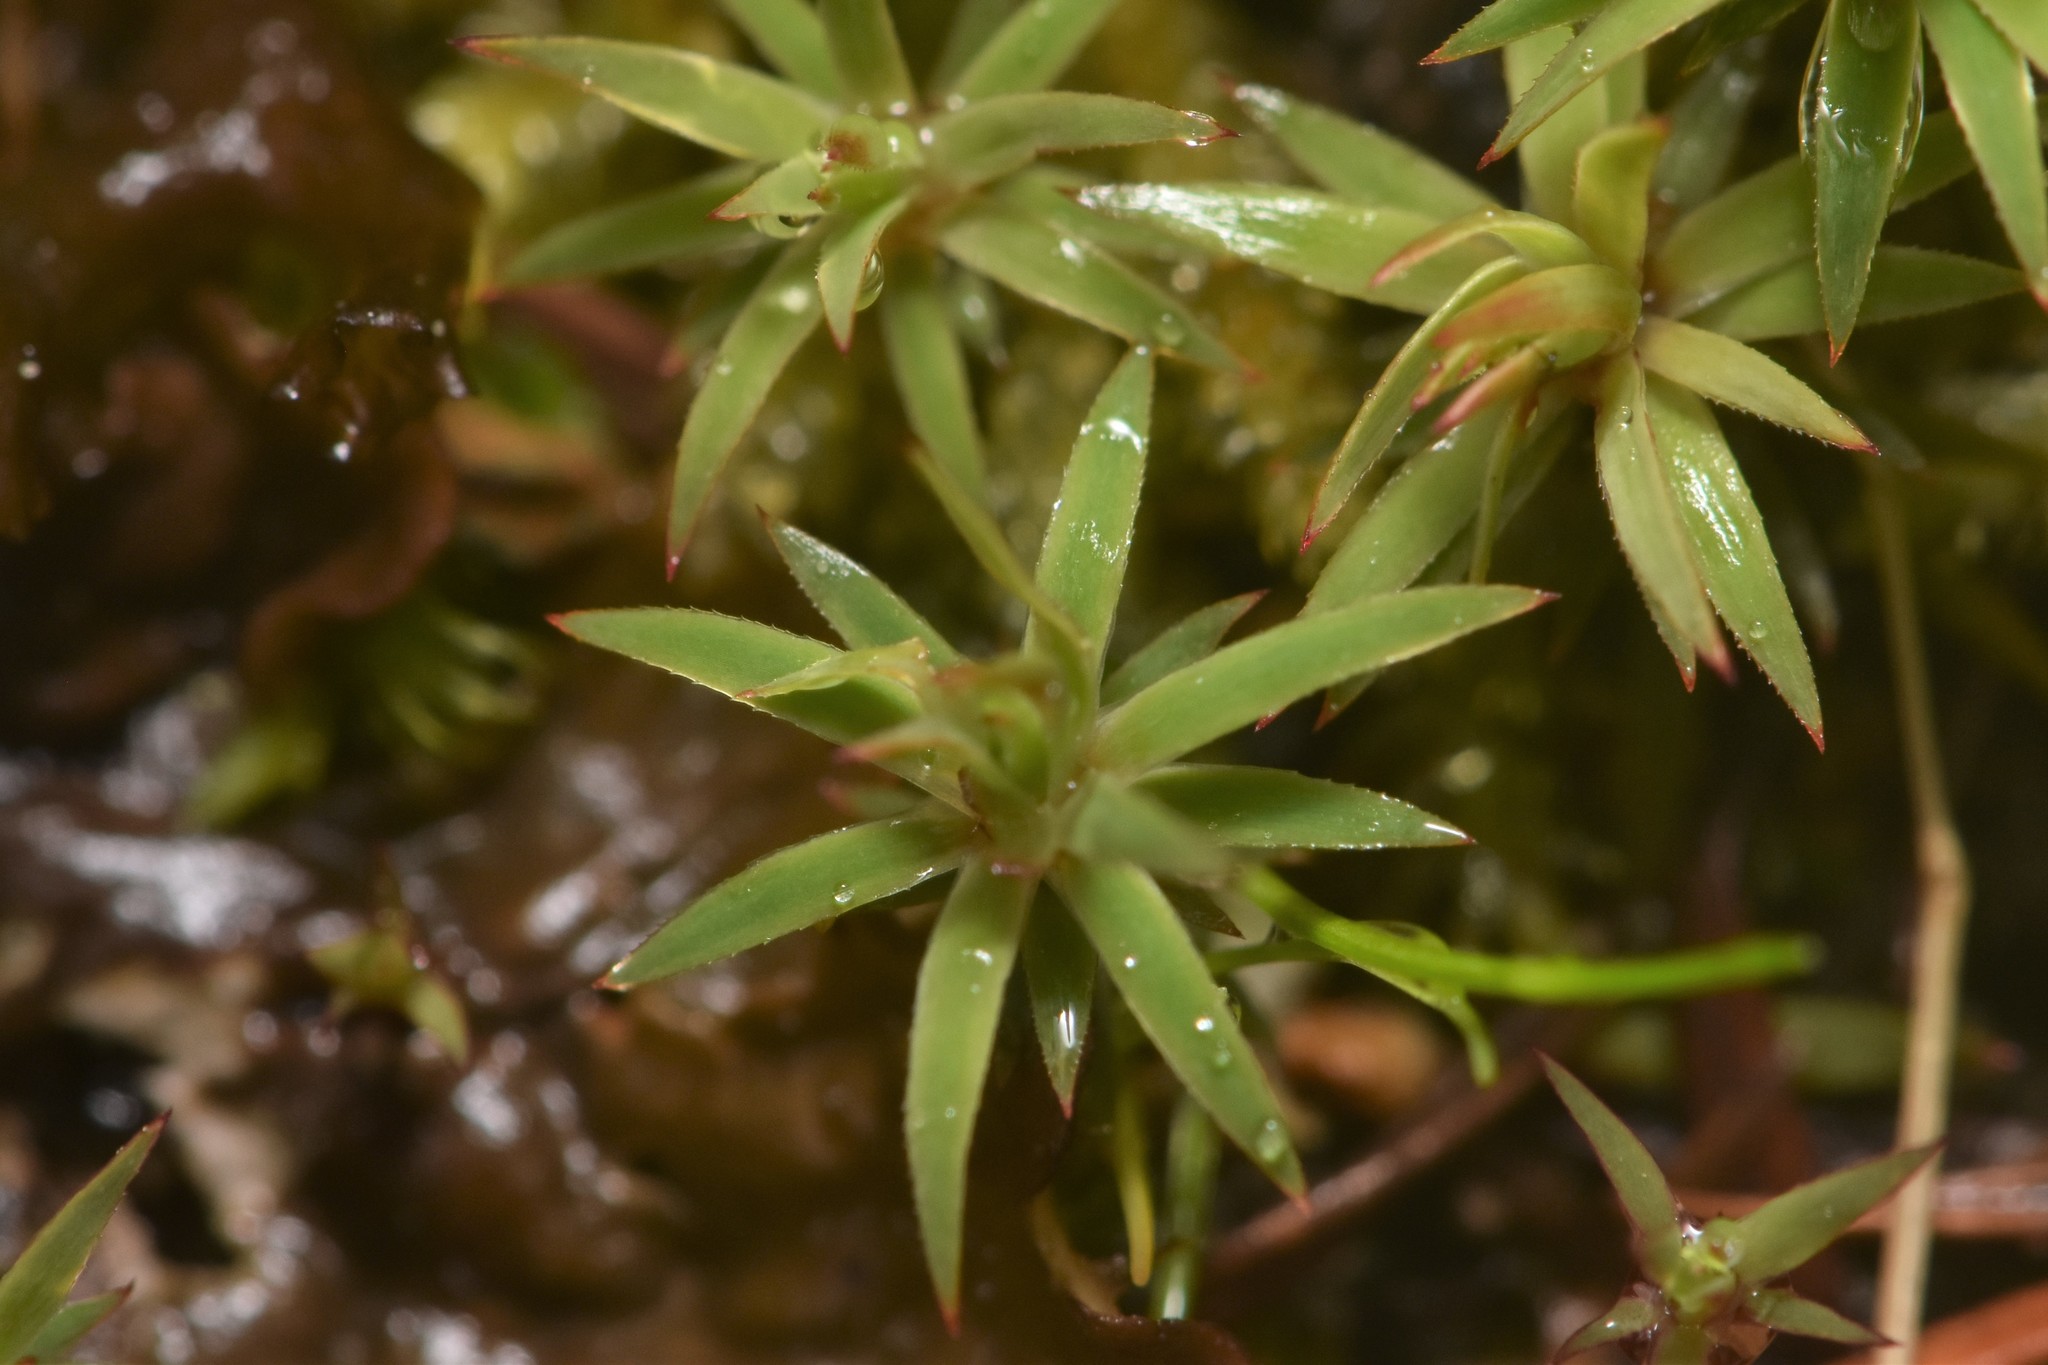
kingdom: Plantae
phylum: Bryophyta
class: Polytrichopsida
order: Polytrichales
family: Polytrichaceae
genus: Pogonatum
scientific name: Pogonatum urnigerum
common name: Urn hair moss
